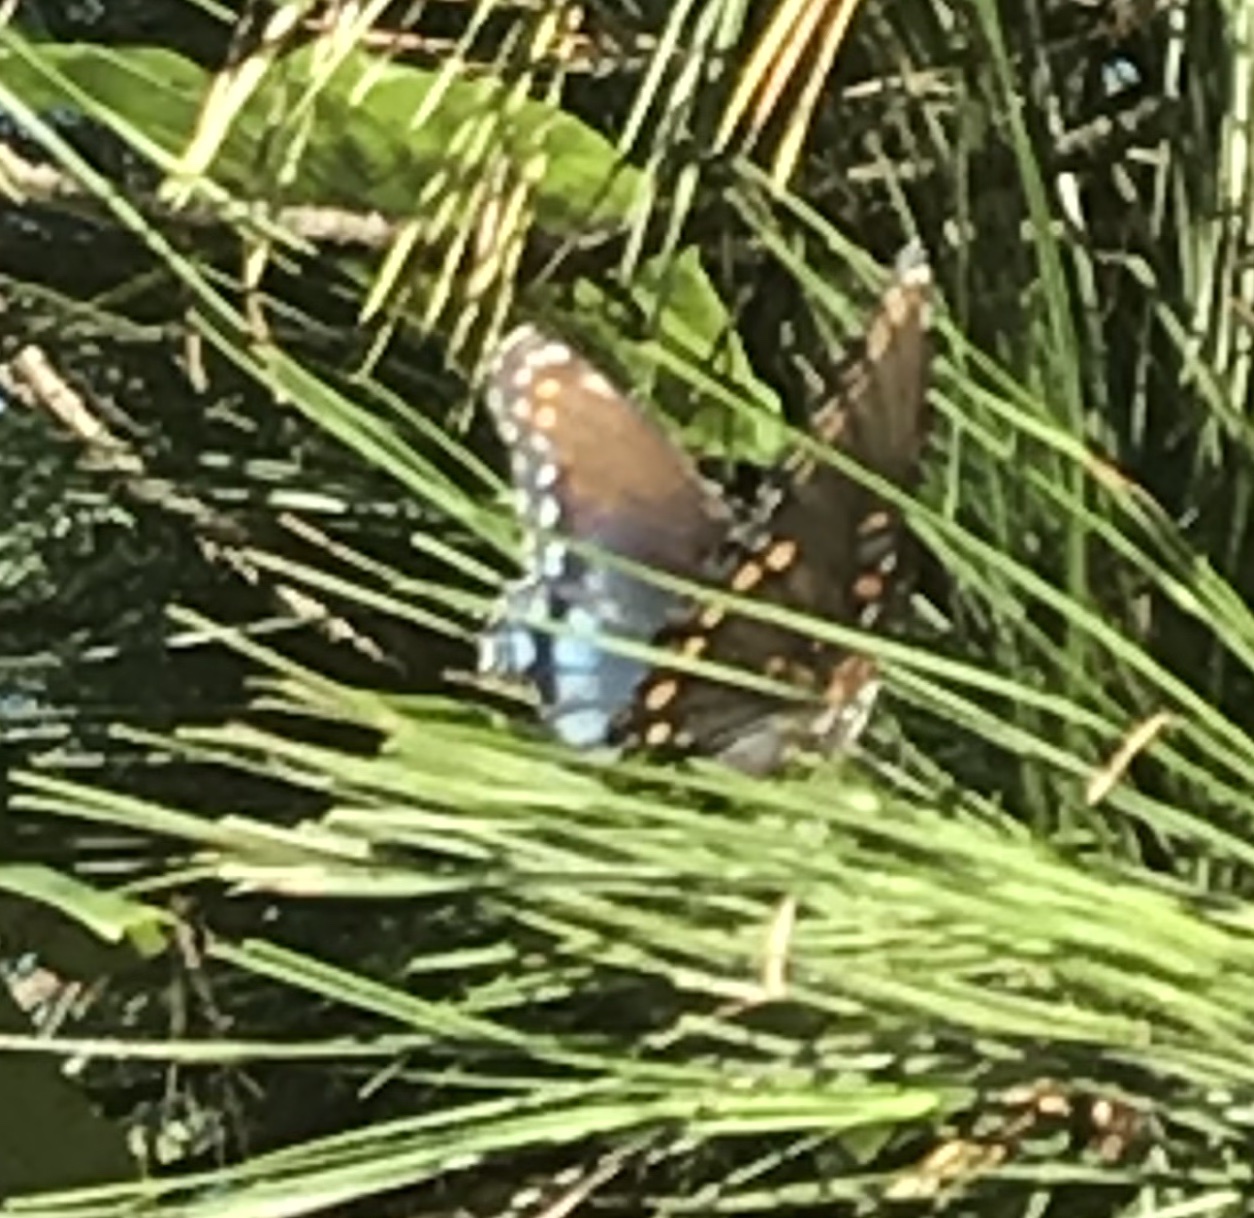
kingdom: Animalia
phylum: Arthropoda
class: Insecta
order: Lepidoptera
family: Nymphalidae
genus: Limenitis
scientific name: Limenitis astyanax
